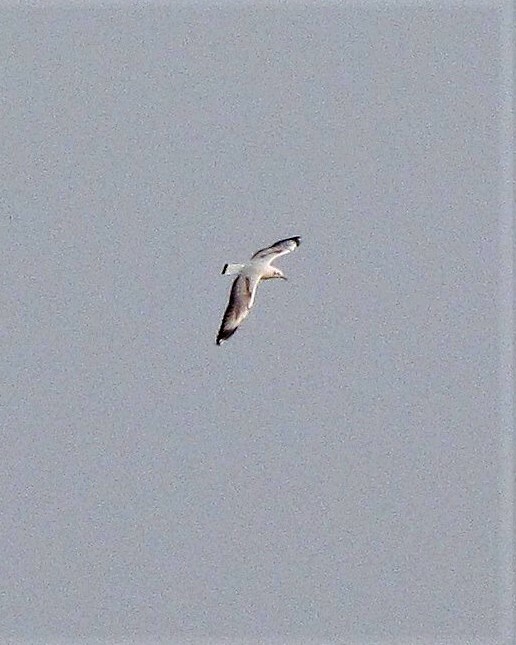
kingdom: Animalia
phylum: Chordata
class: Aves
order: Charadriiformes
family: Laridae
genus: Chroicocephalus
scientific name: Chroicocephalus cirrocephalus
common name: Grey-headed gull
